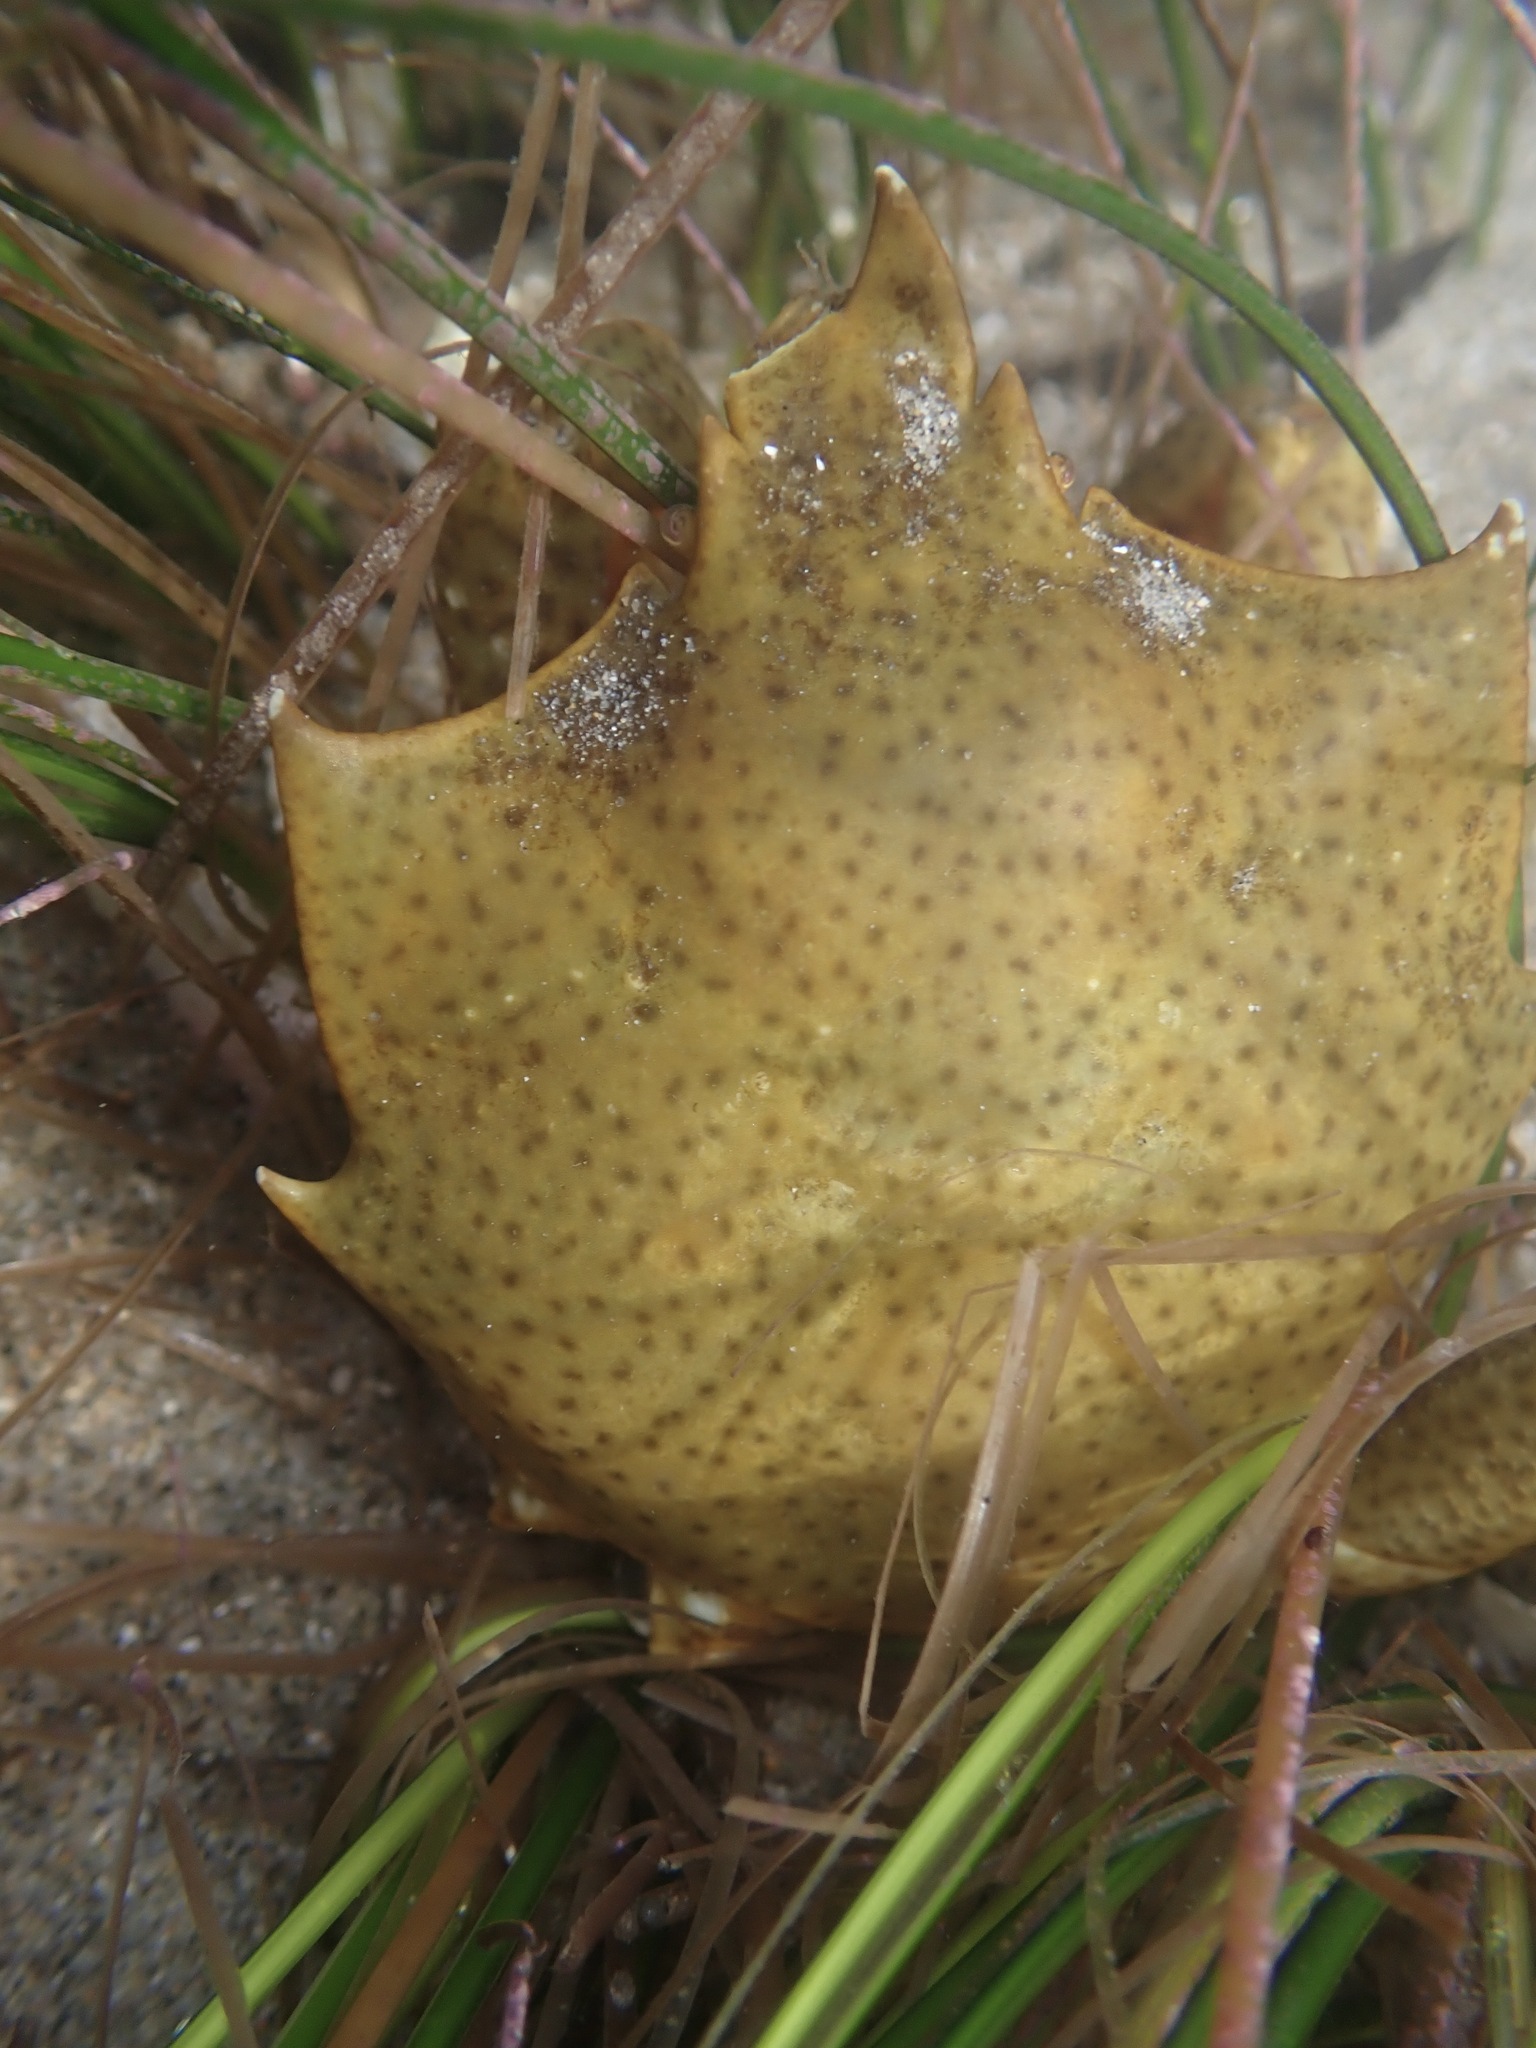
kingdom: Animalia
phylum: Arthropoda
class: Malacostraca
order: Decapoda
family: Epialtidae
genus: Pugettia
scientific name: Pugettia producta
